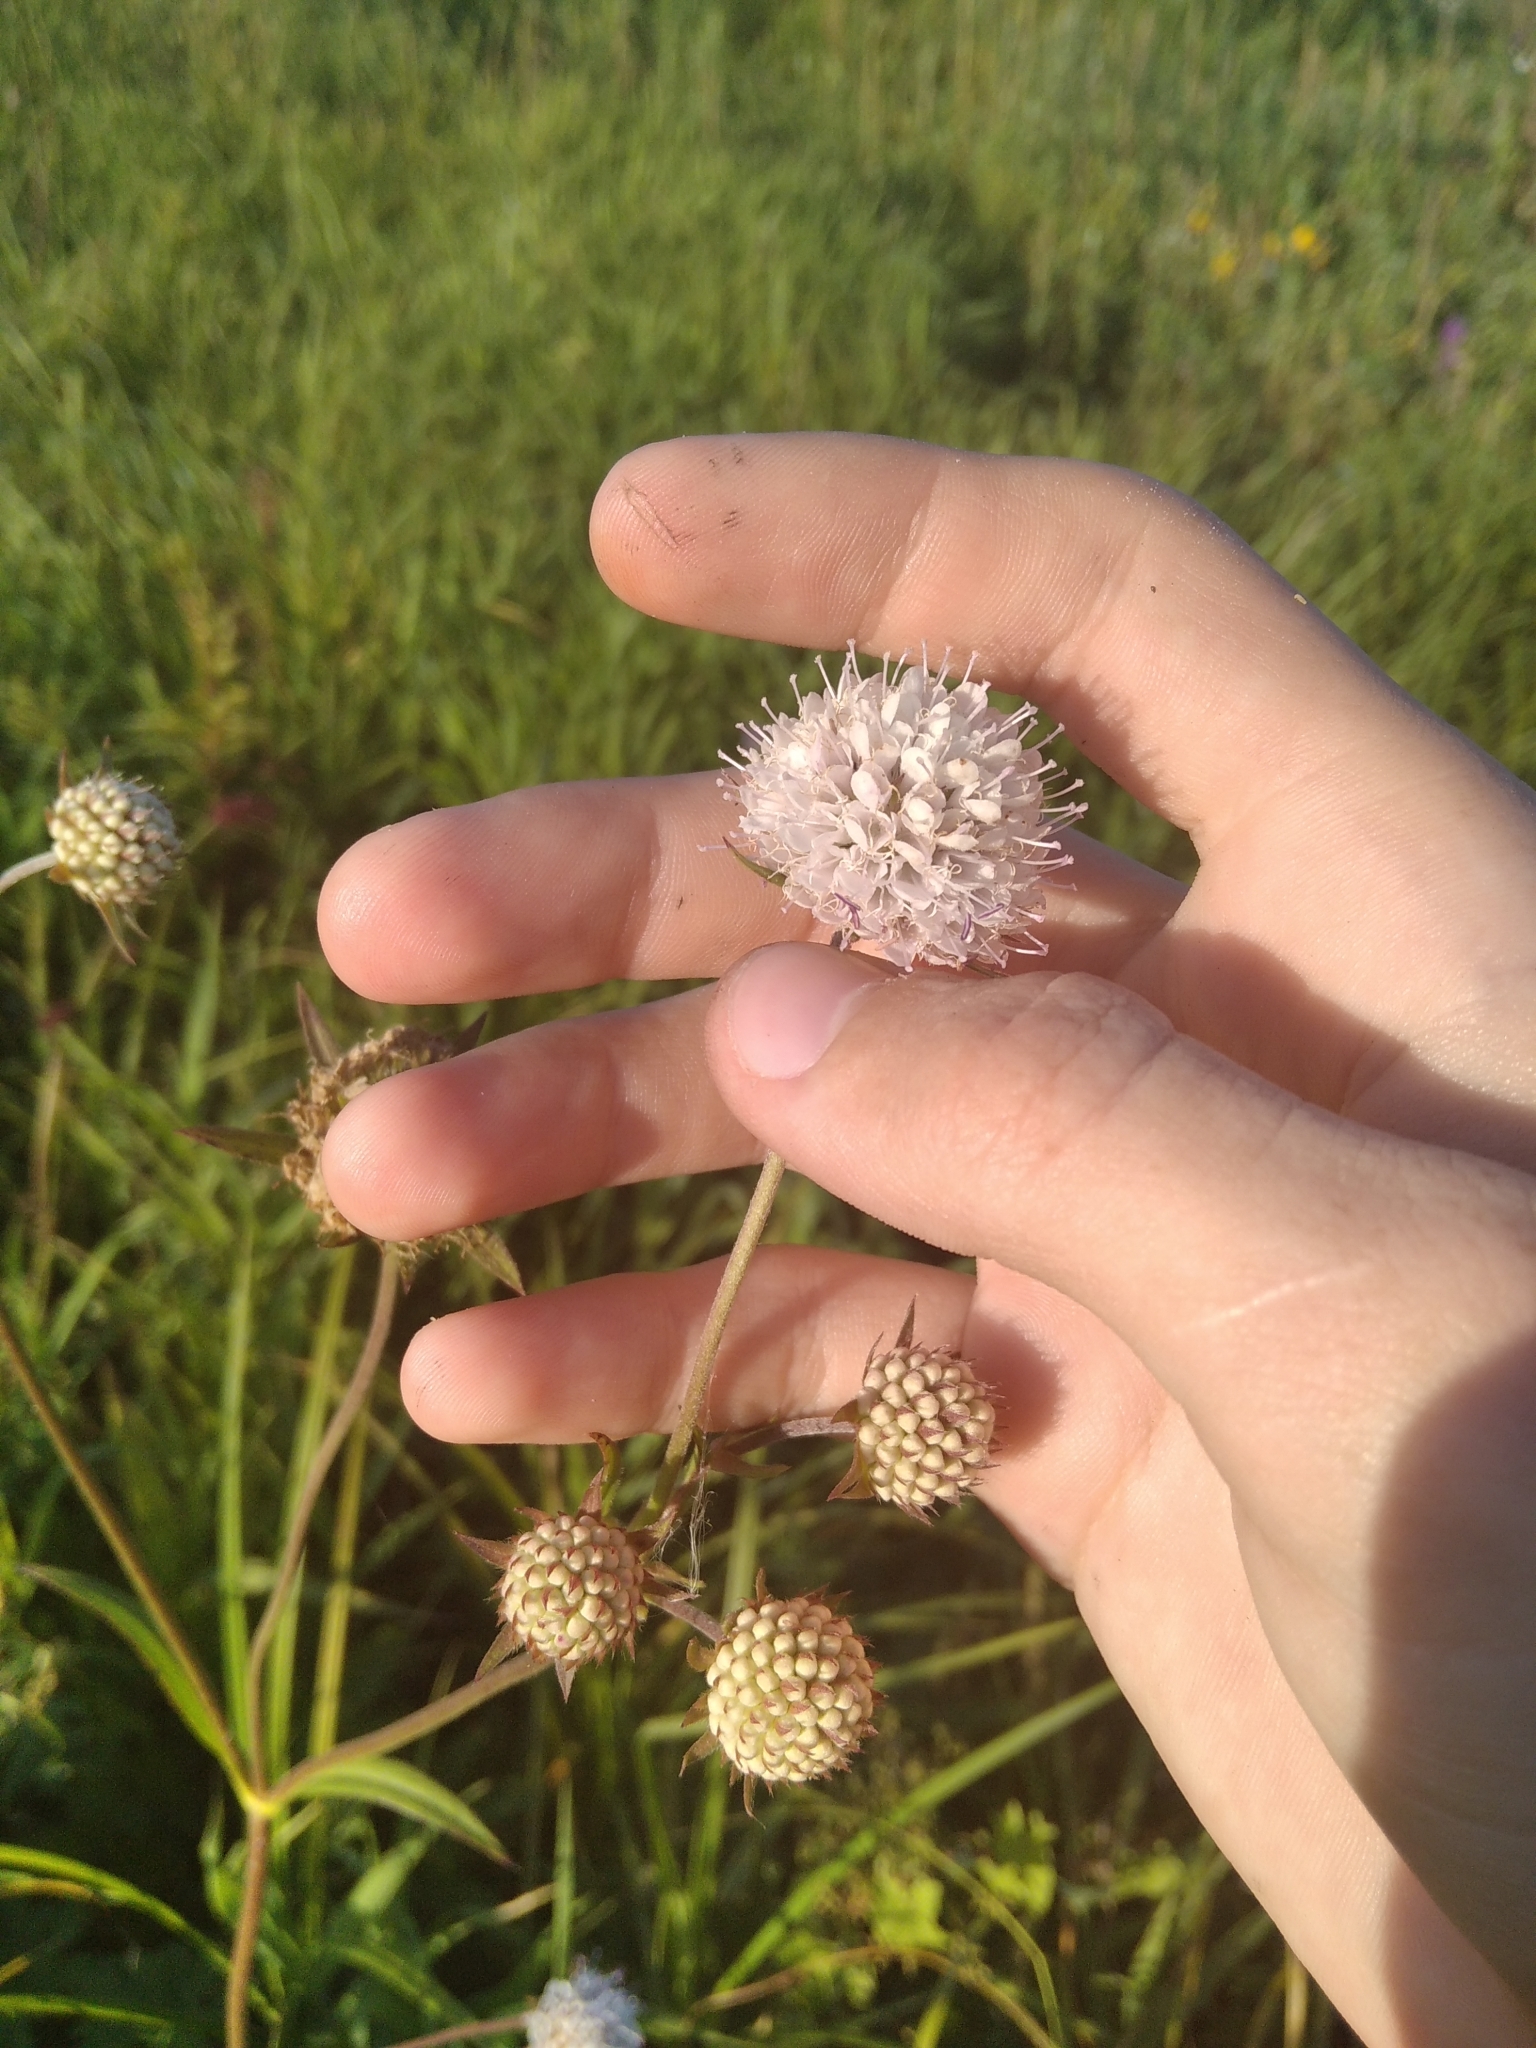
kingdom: Plantae
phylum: Tracheophyta
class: Magnoliopsida
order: Dipsacales
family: Caprifoliaceae
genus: Succisa
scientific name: Succisa pratensis
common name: Devil's-bit
